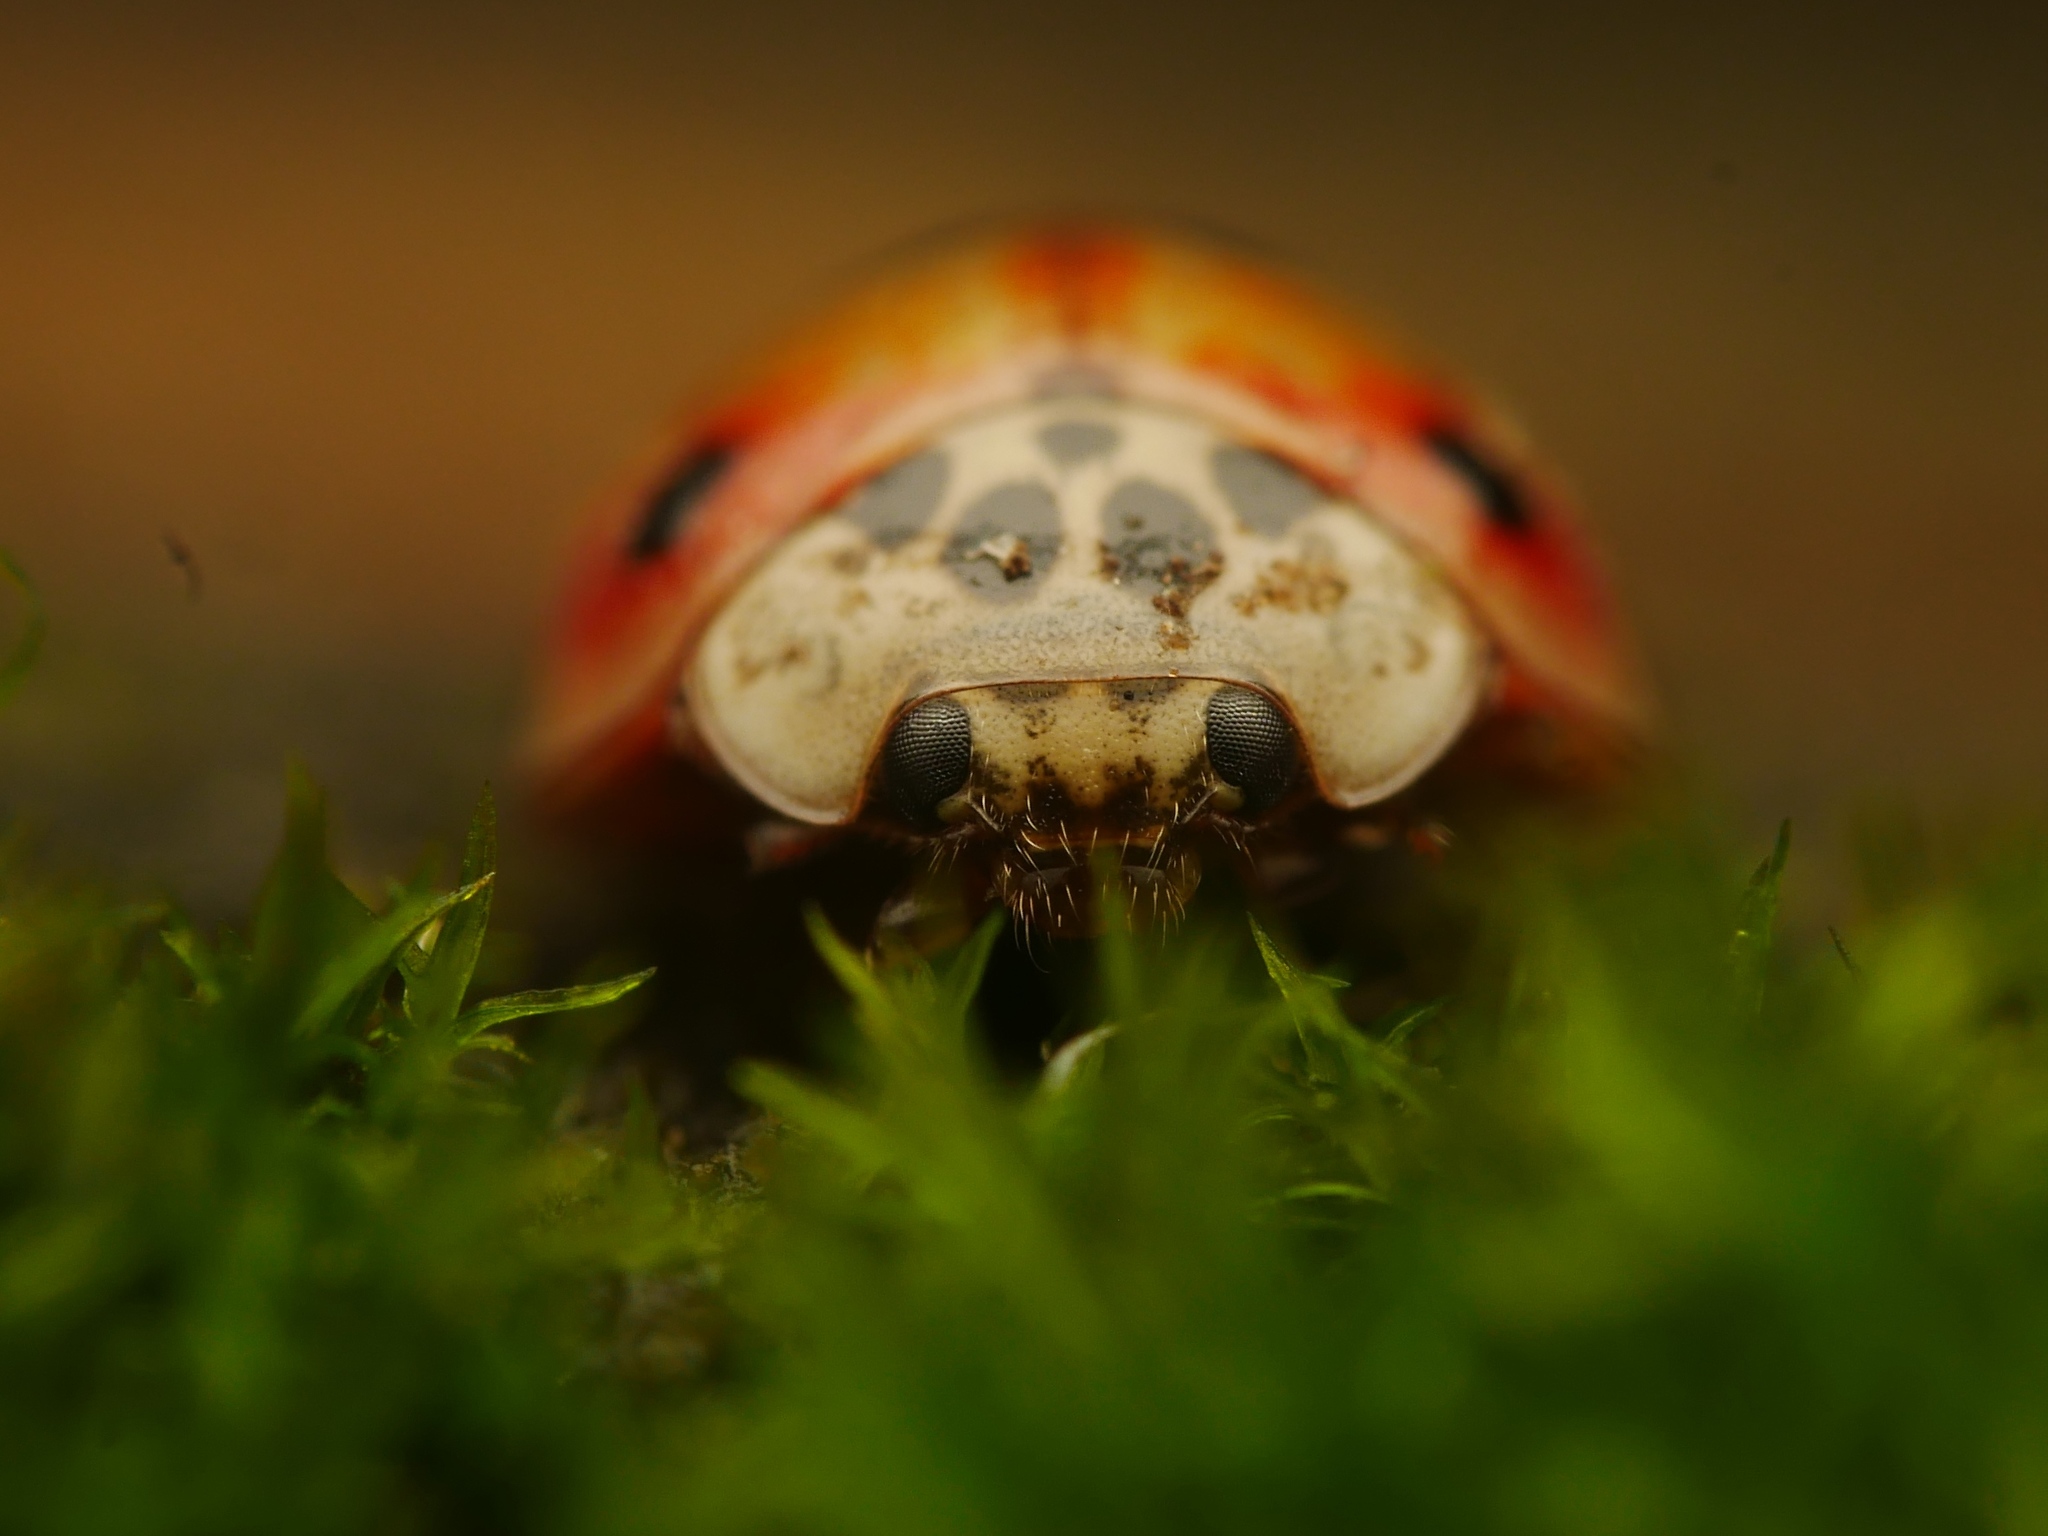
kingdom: Animalia
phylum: Arthropoda
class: Insecta
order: Coleoptera
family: Coccinellidae
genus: Adalia
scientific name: Adalia decempunctata
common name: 10-spot ladybird
